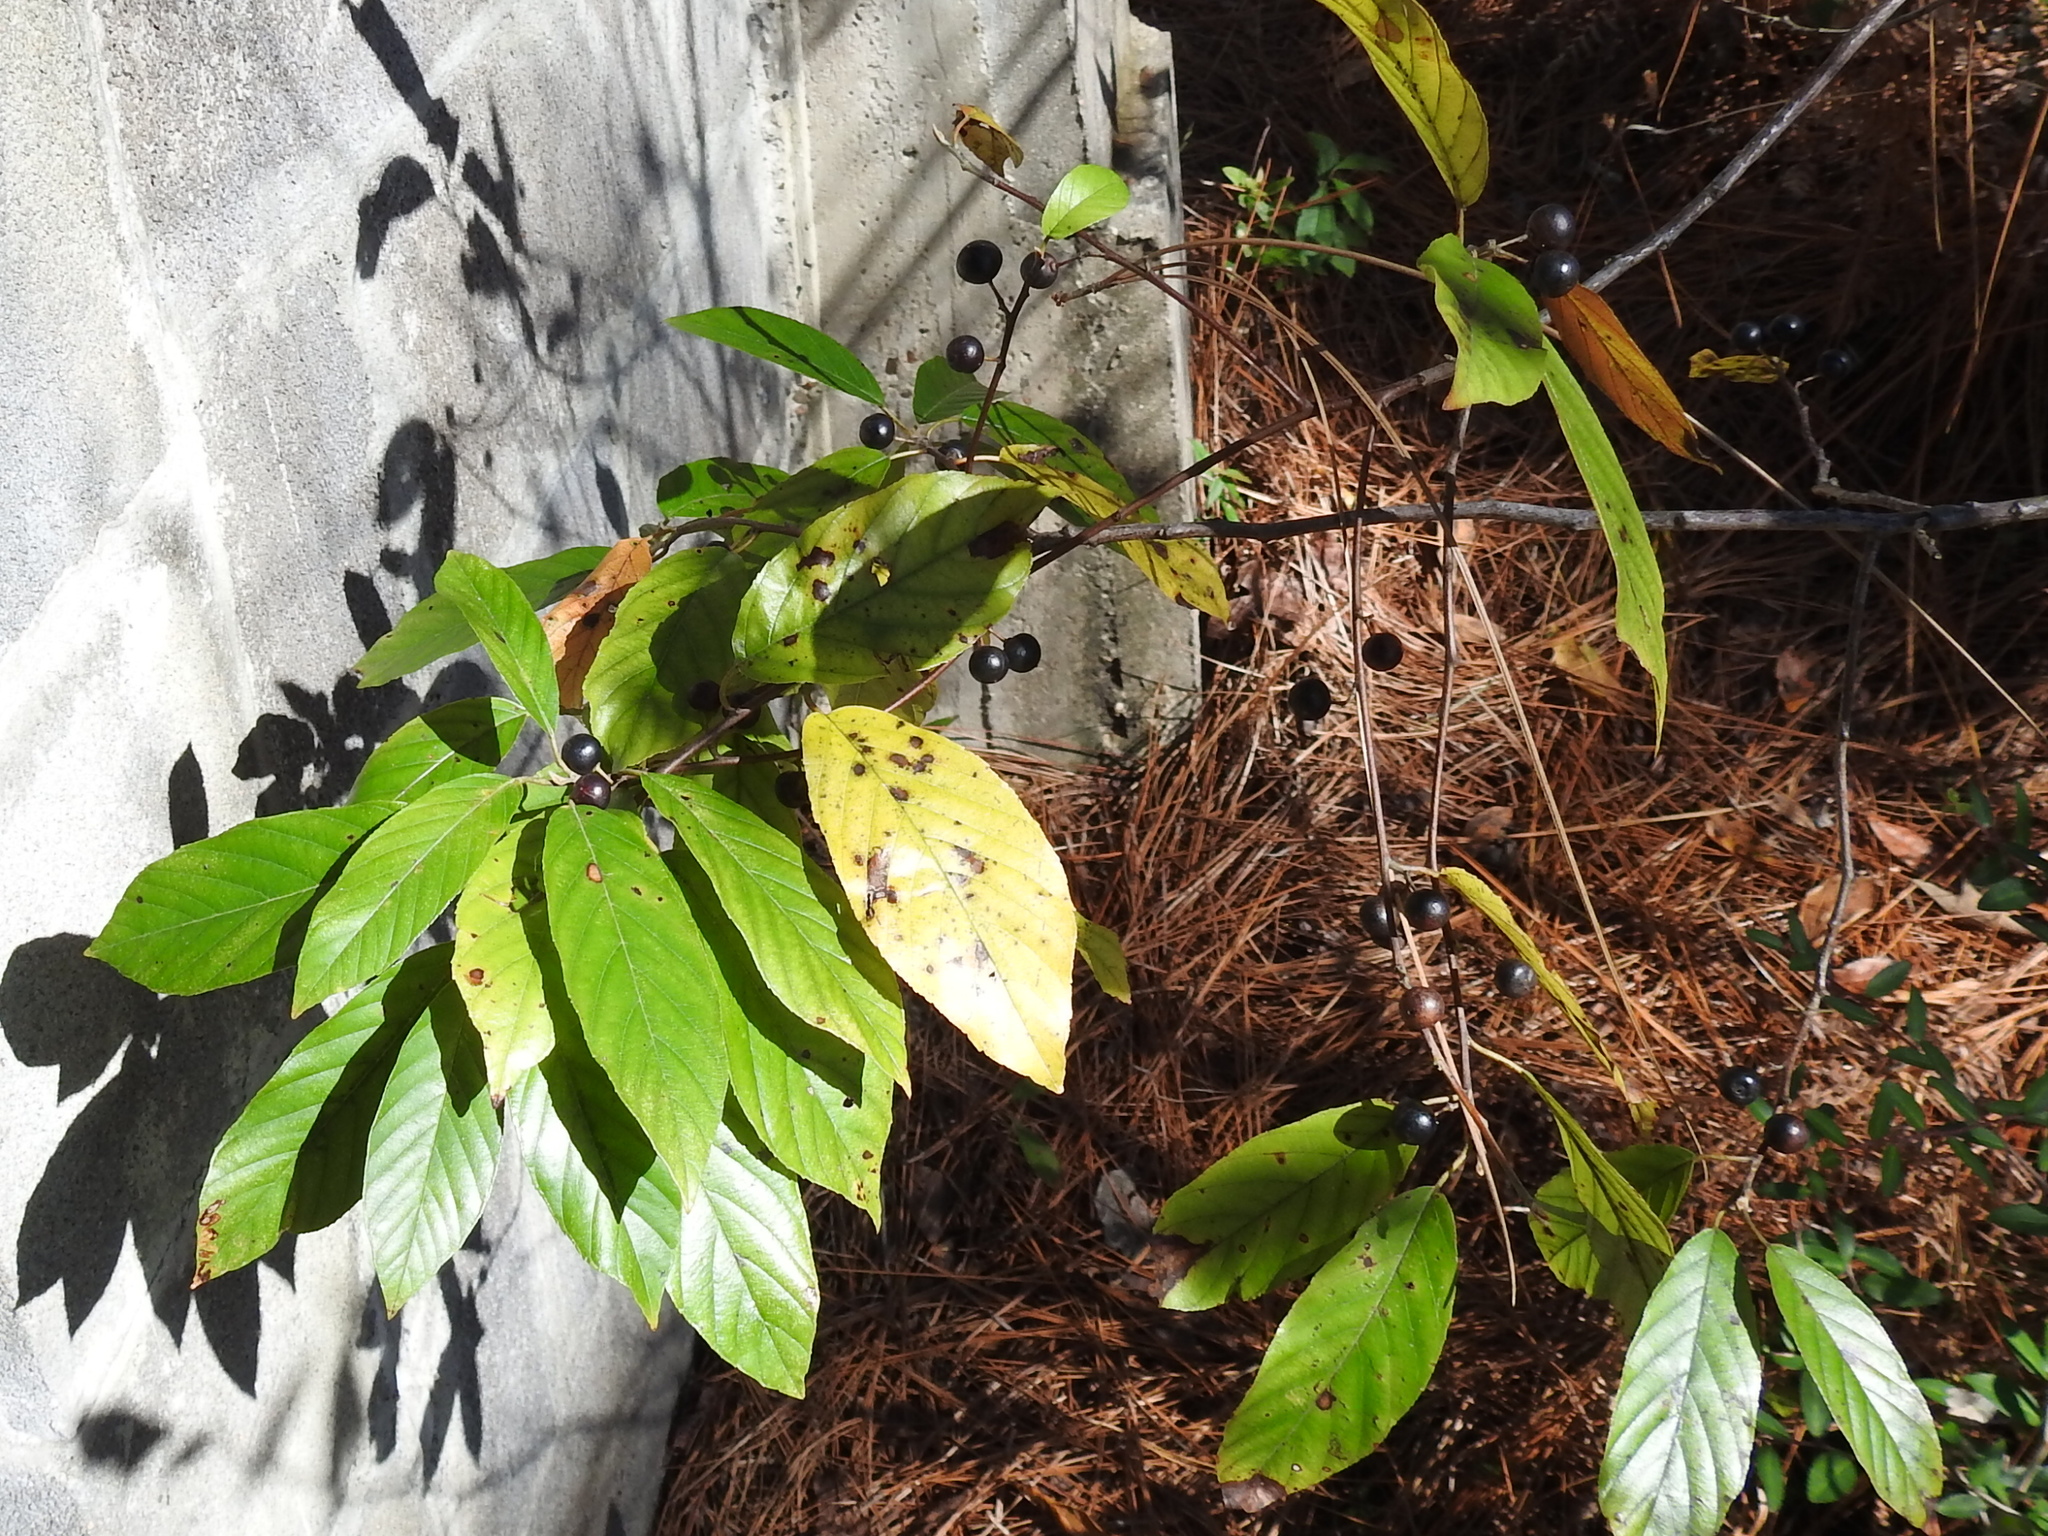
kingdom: Plantae
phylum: Tracheophyta
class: Magnoliopsida
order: Rosales
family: Rhamnaceae
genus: Frangula
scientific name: Frangula caroliniana
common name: Carolina buckthorn
